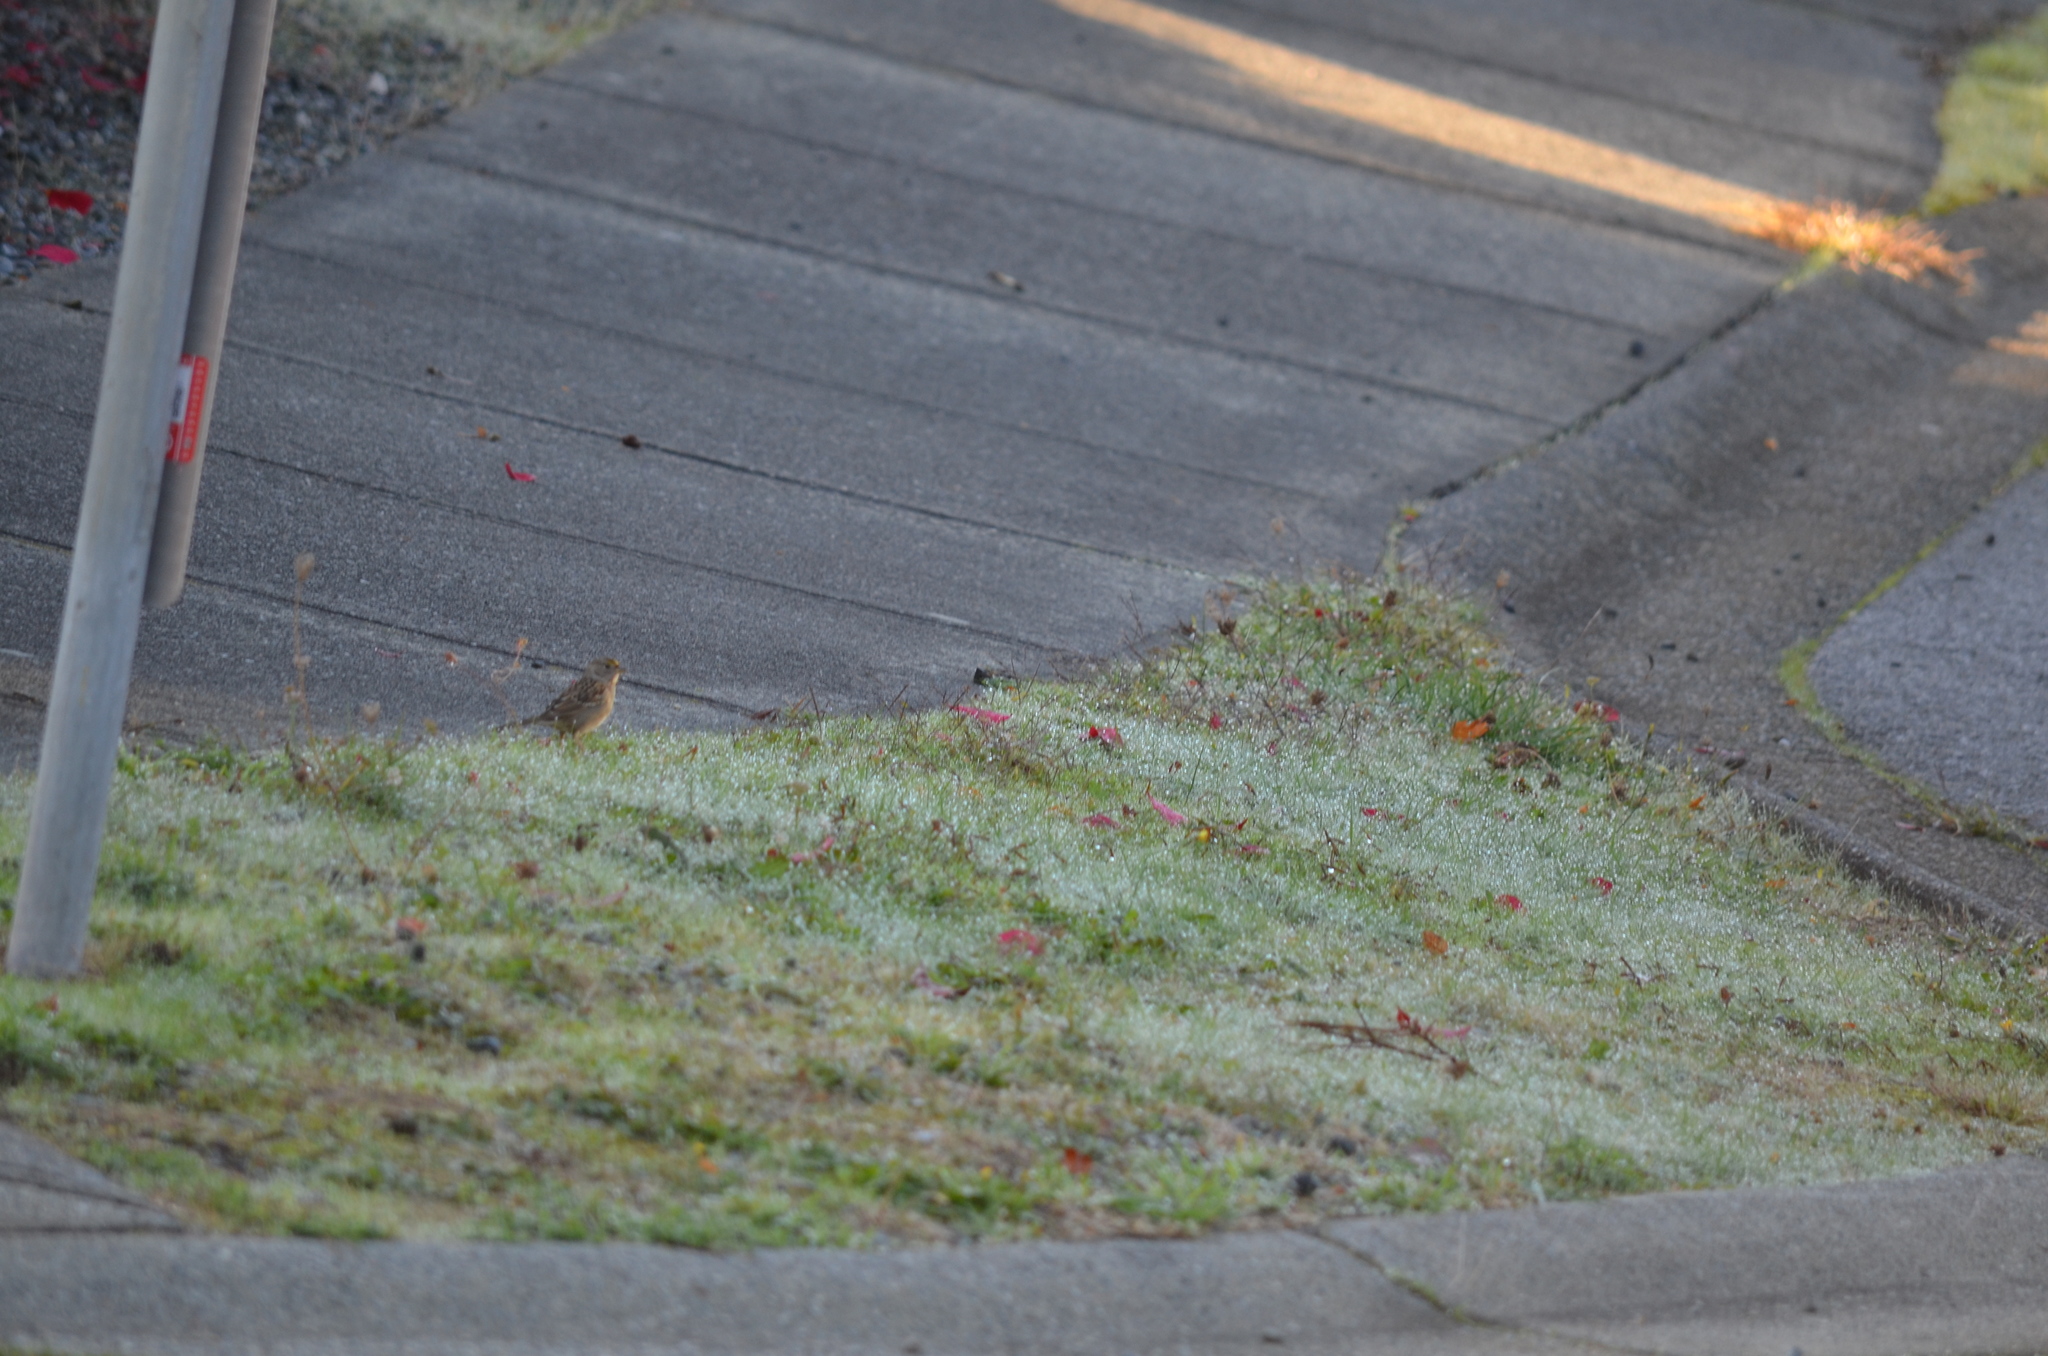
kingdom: Animalia
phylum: Chordata
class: Aves
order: Passeriformes
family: Passerellidae
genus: Zonotrichia
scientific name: Zonotrichia atricapilla
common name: Golden-crowned sparrow
